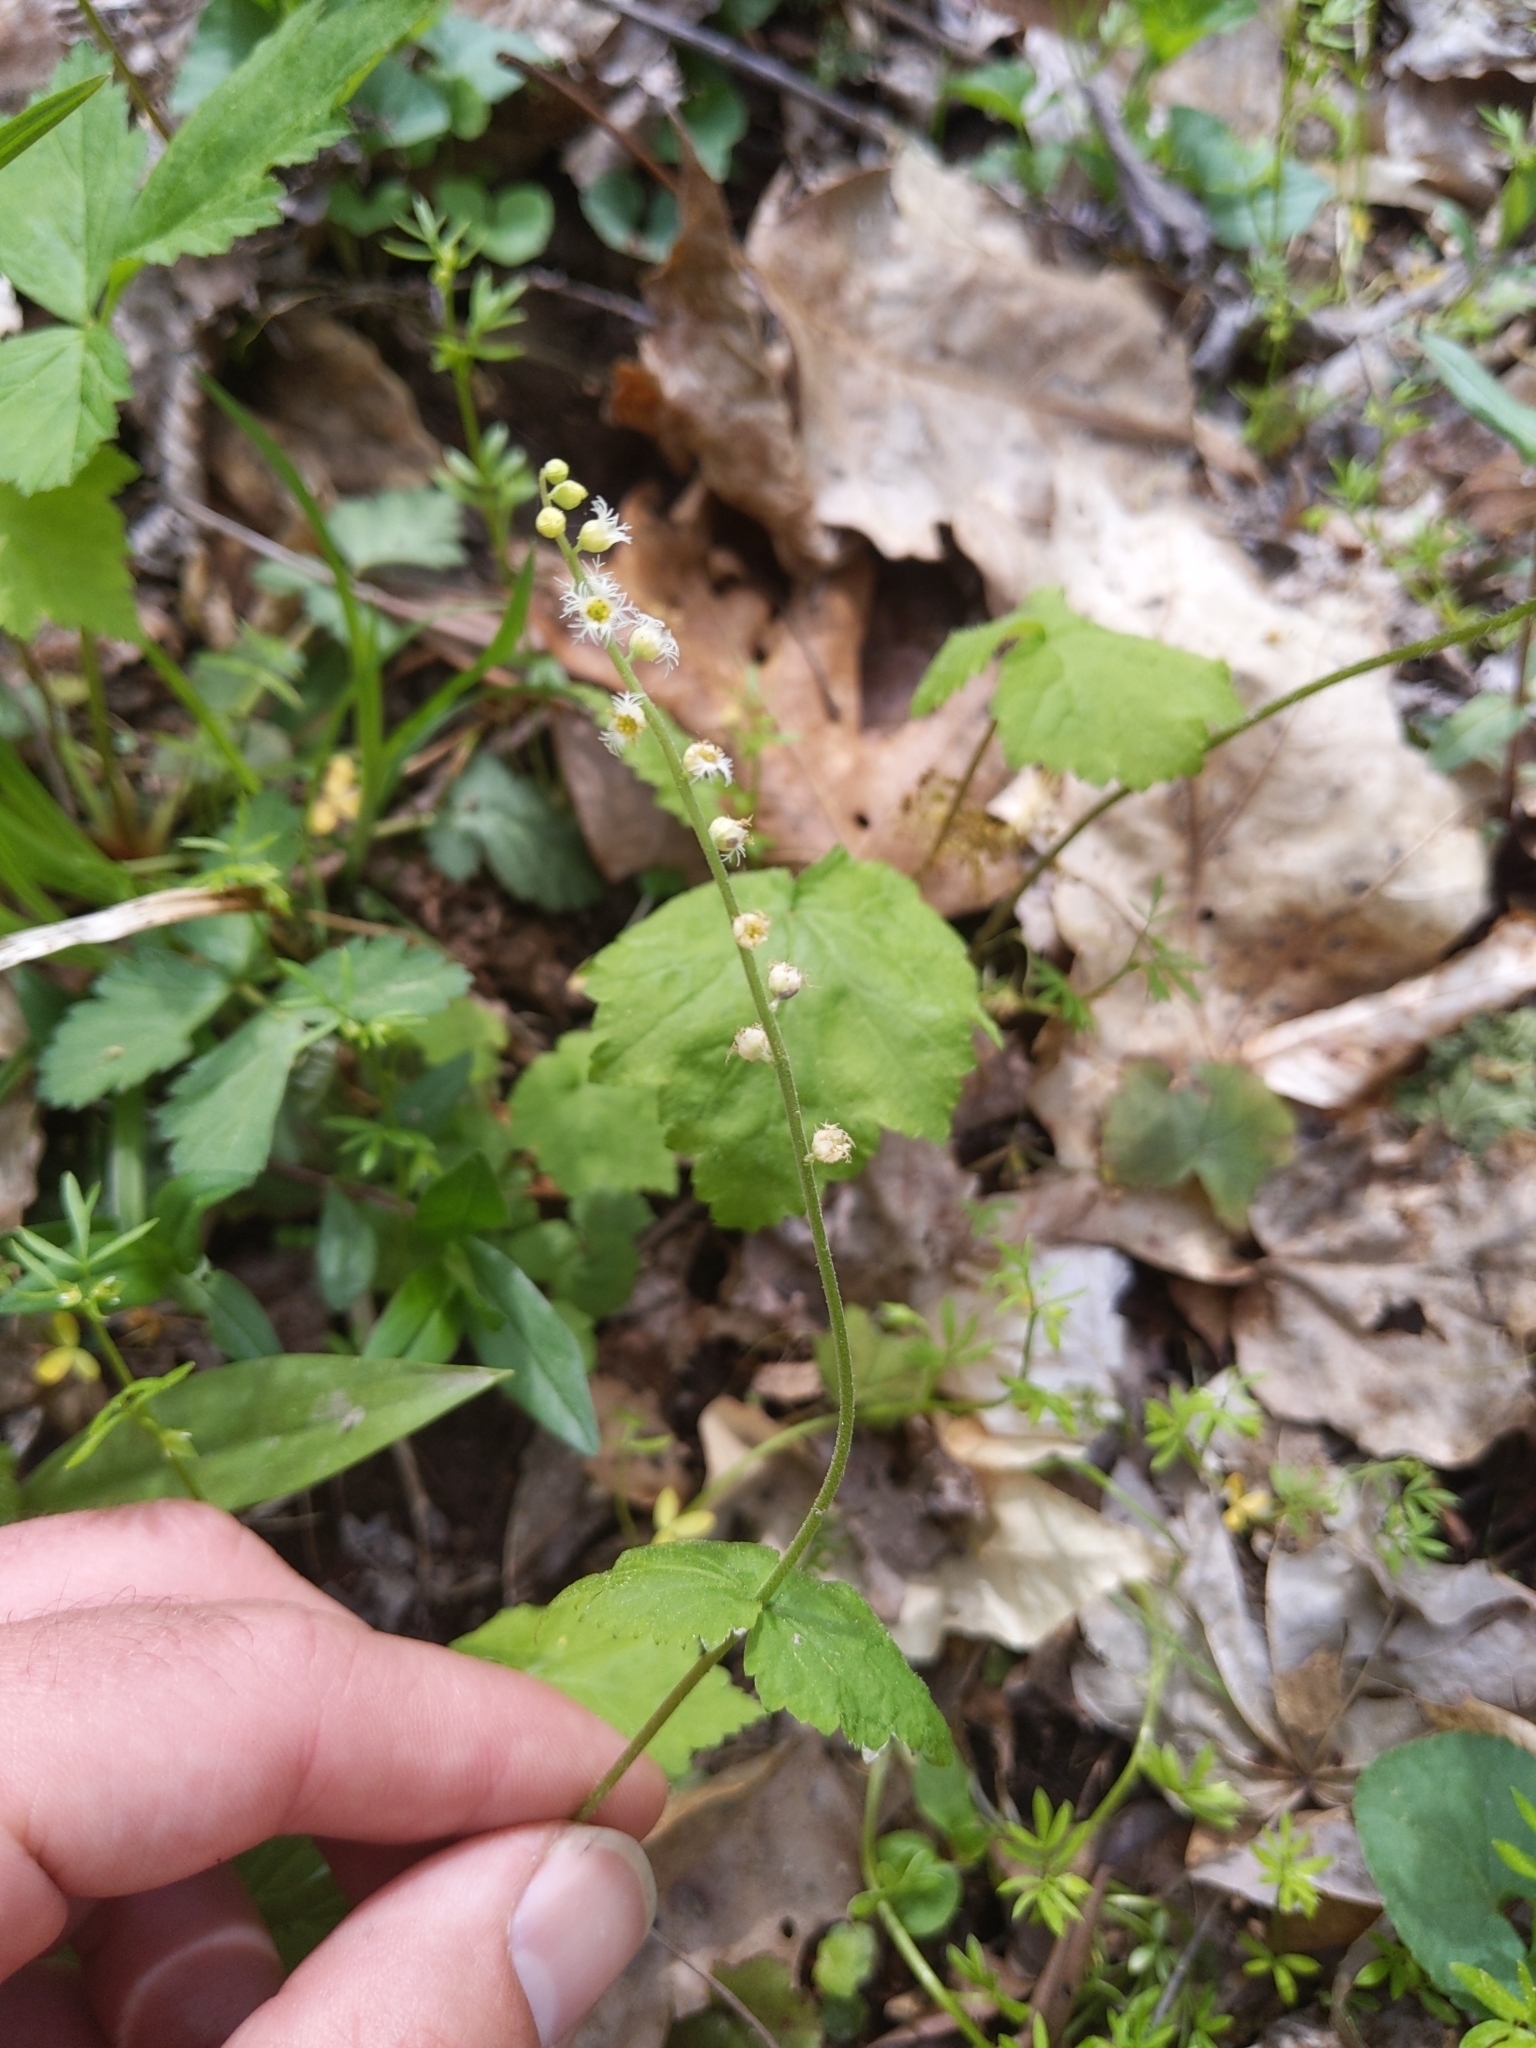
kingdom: Plantae
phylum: Tracheophyta
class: Magnoliopsida
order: Saxifragales
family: Saxifragaceae
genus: Mitella
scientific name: Mitella diphylla
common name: Coolwort
